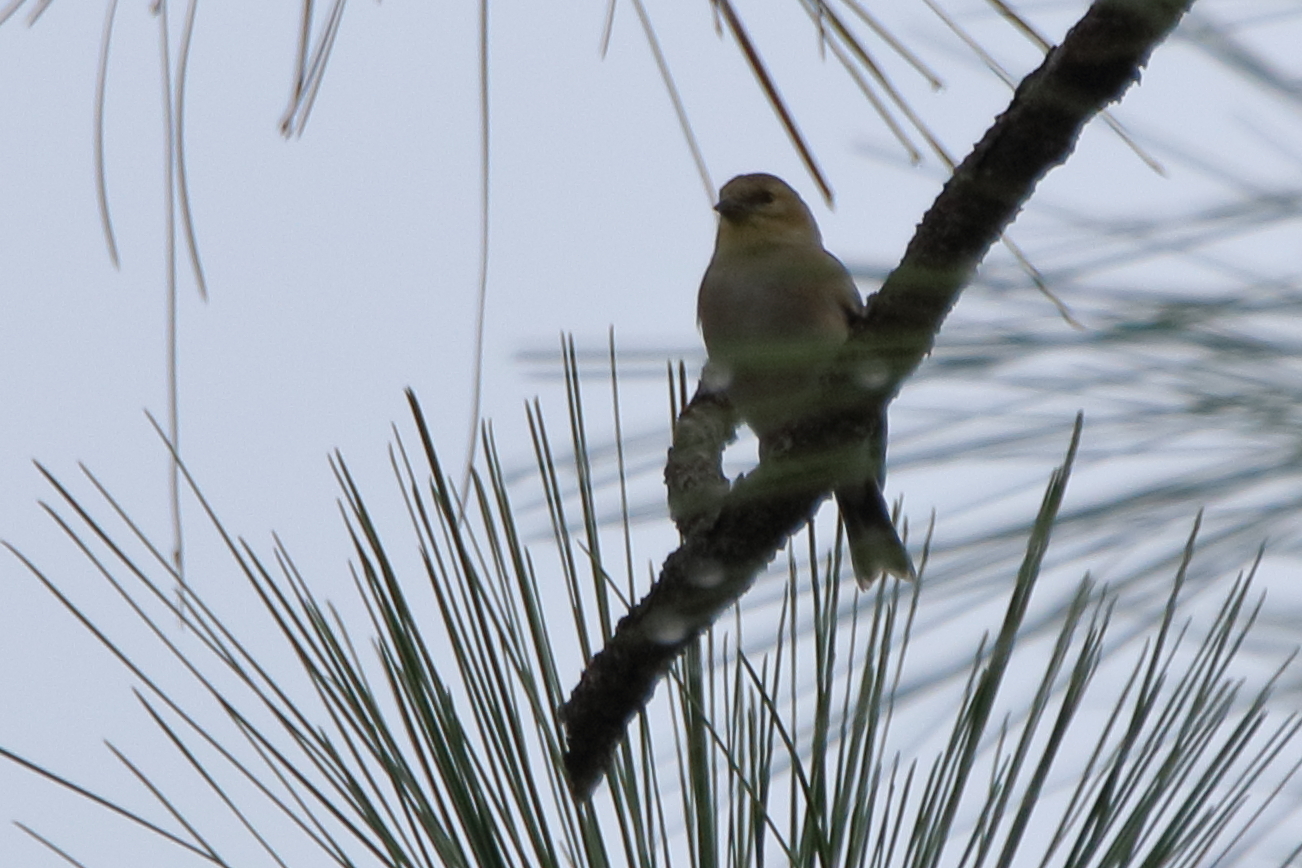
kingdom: Animalia
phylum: Chordata
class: Aves
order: Passeriformes
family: Fringillidae
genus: Spinus
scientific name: Spinus tristis
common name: American goldfinch
